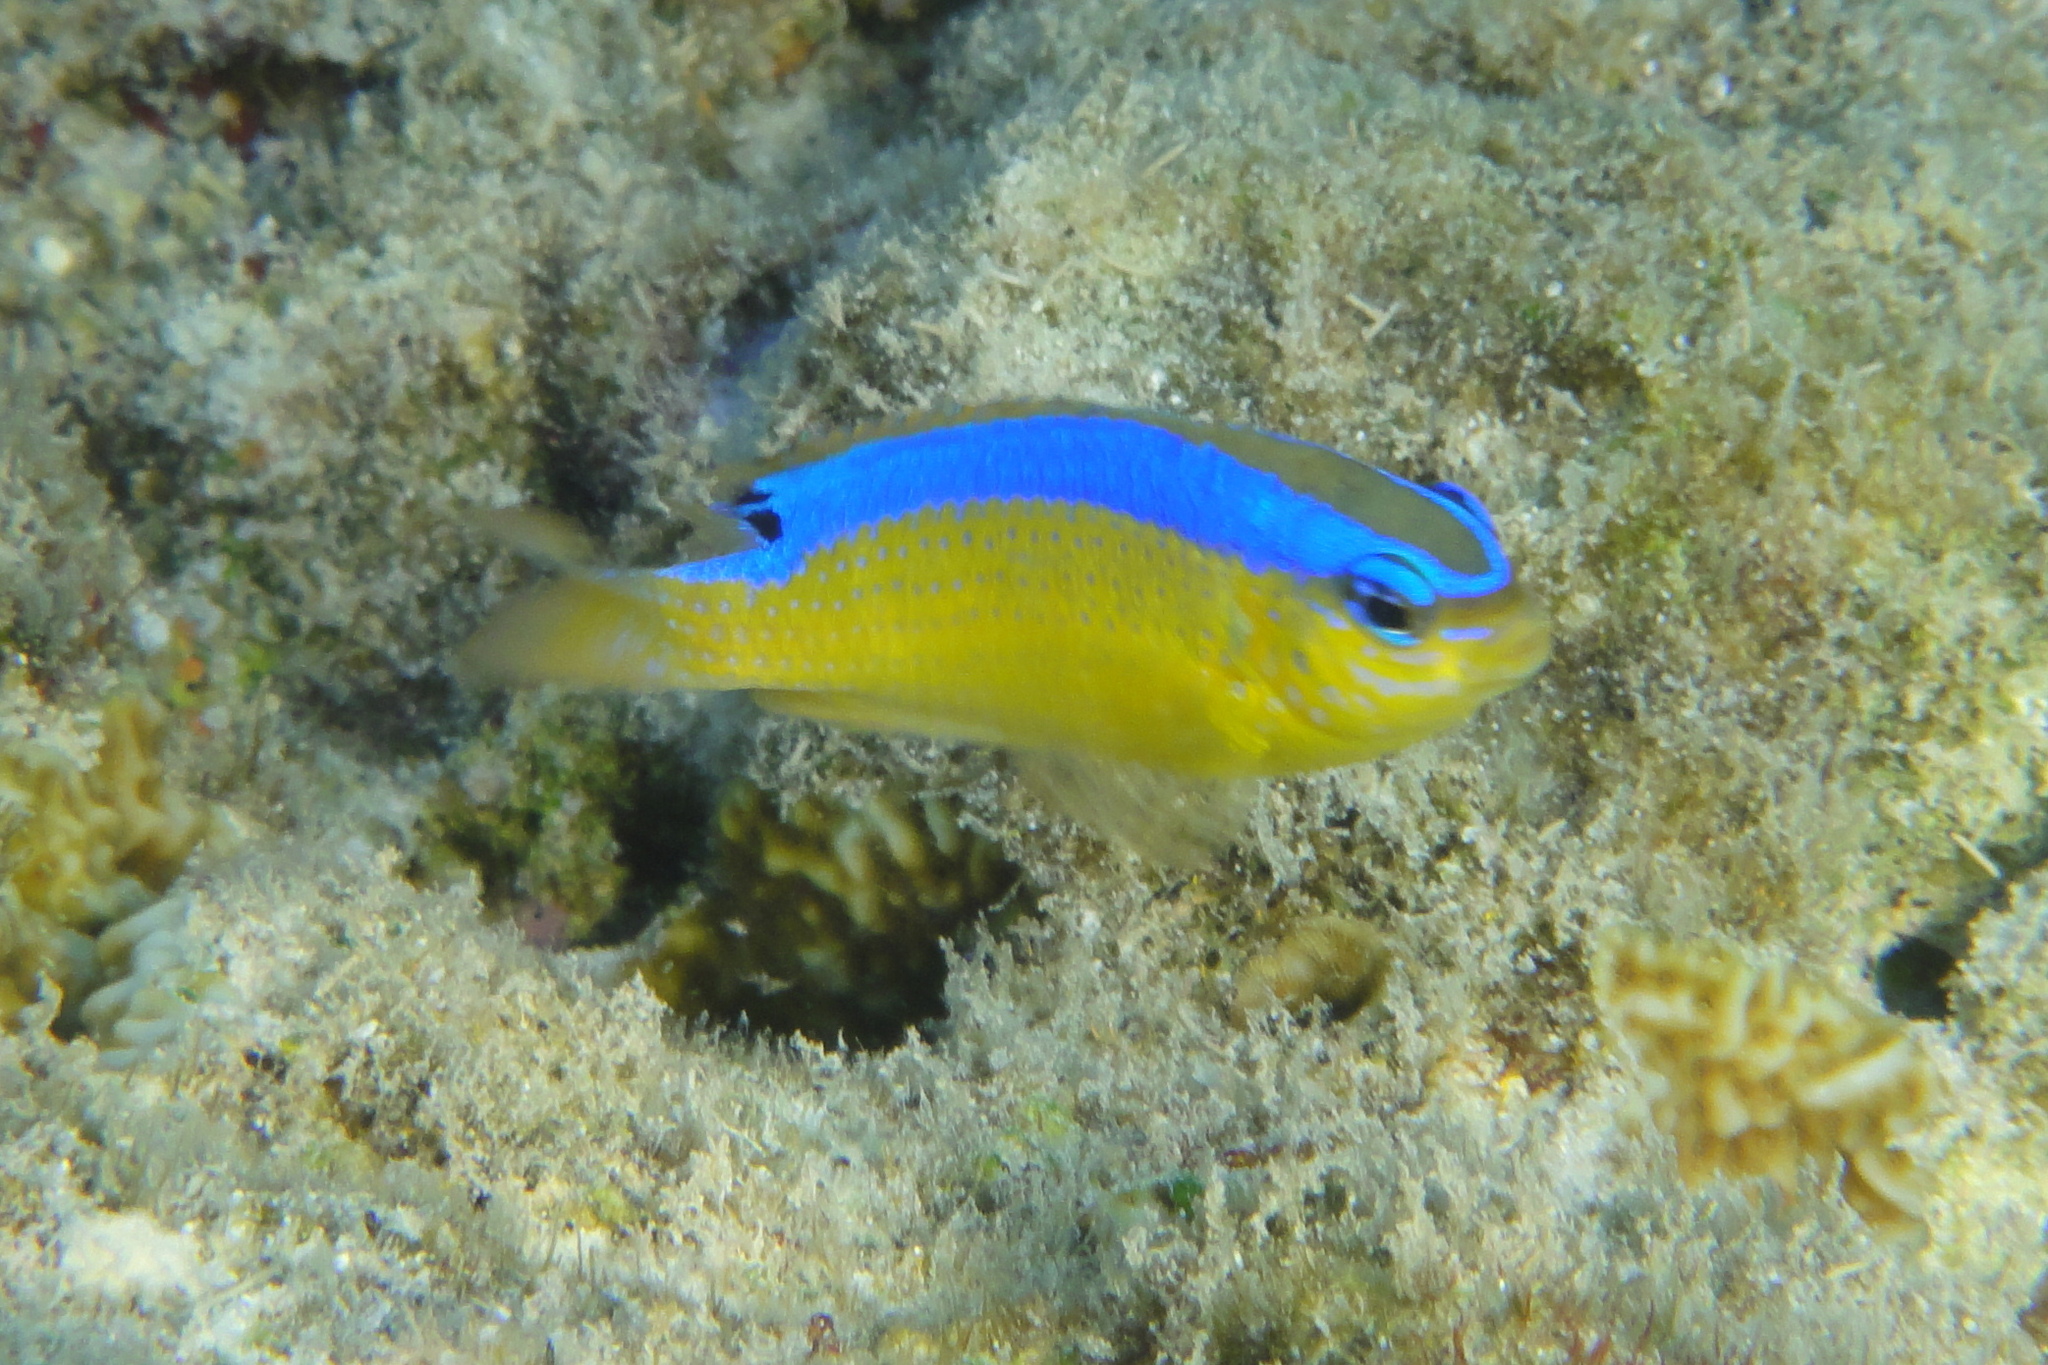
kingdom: Animalia
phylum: Chordata
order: Perciformes
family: Pomacentridae
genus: Chrysiptera
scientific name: Chrysiptera brownriggii
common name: Surge demoiselle
